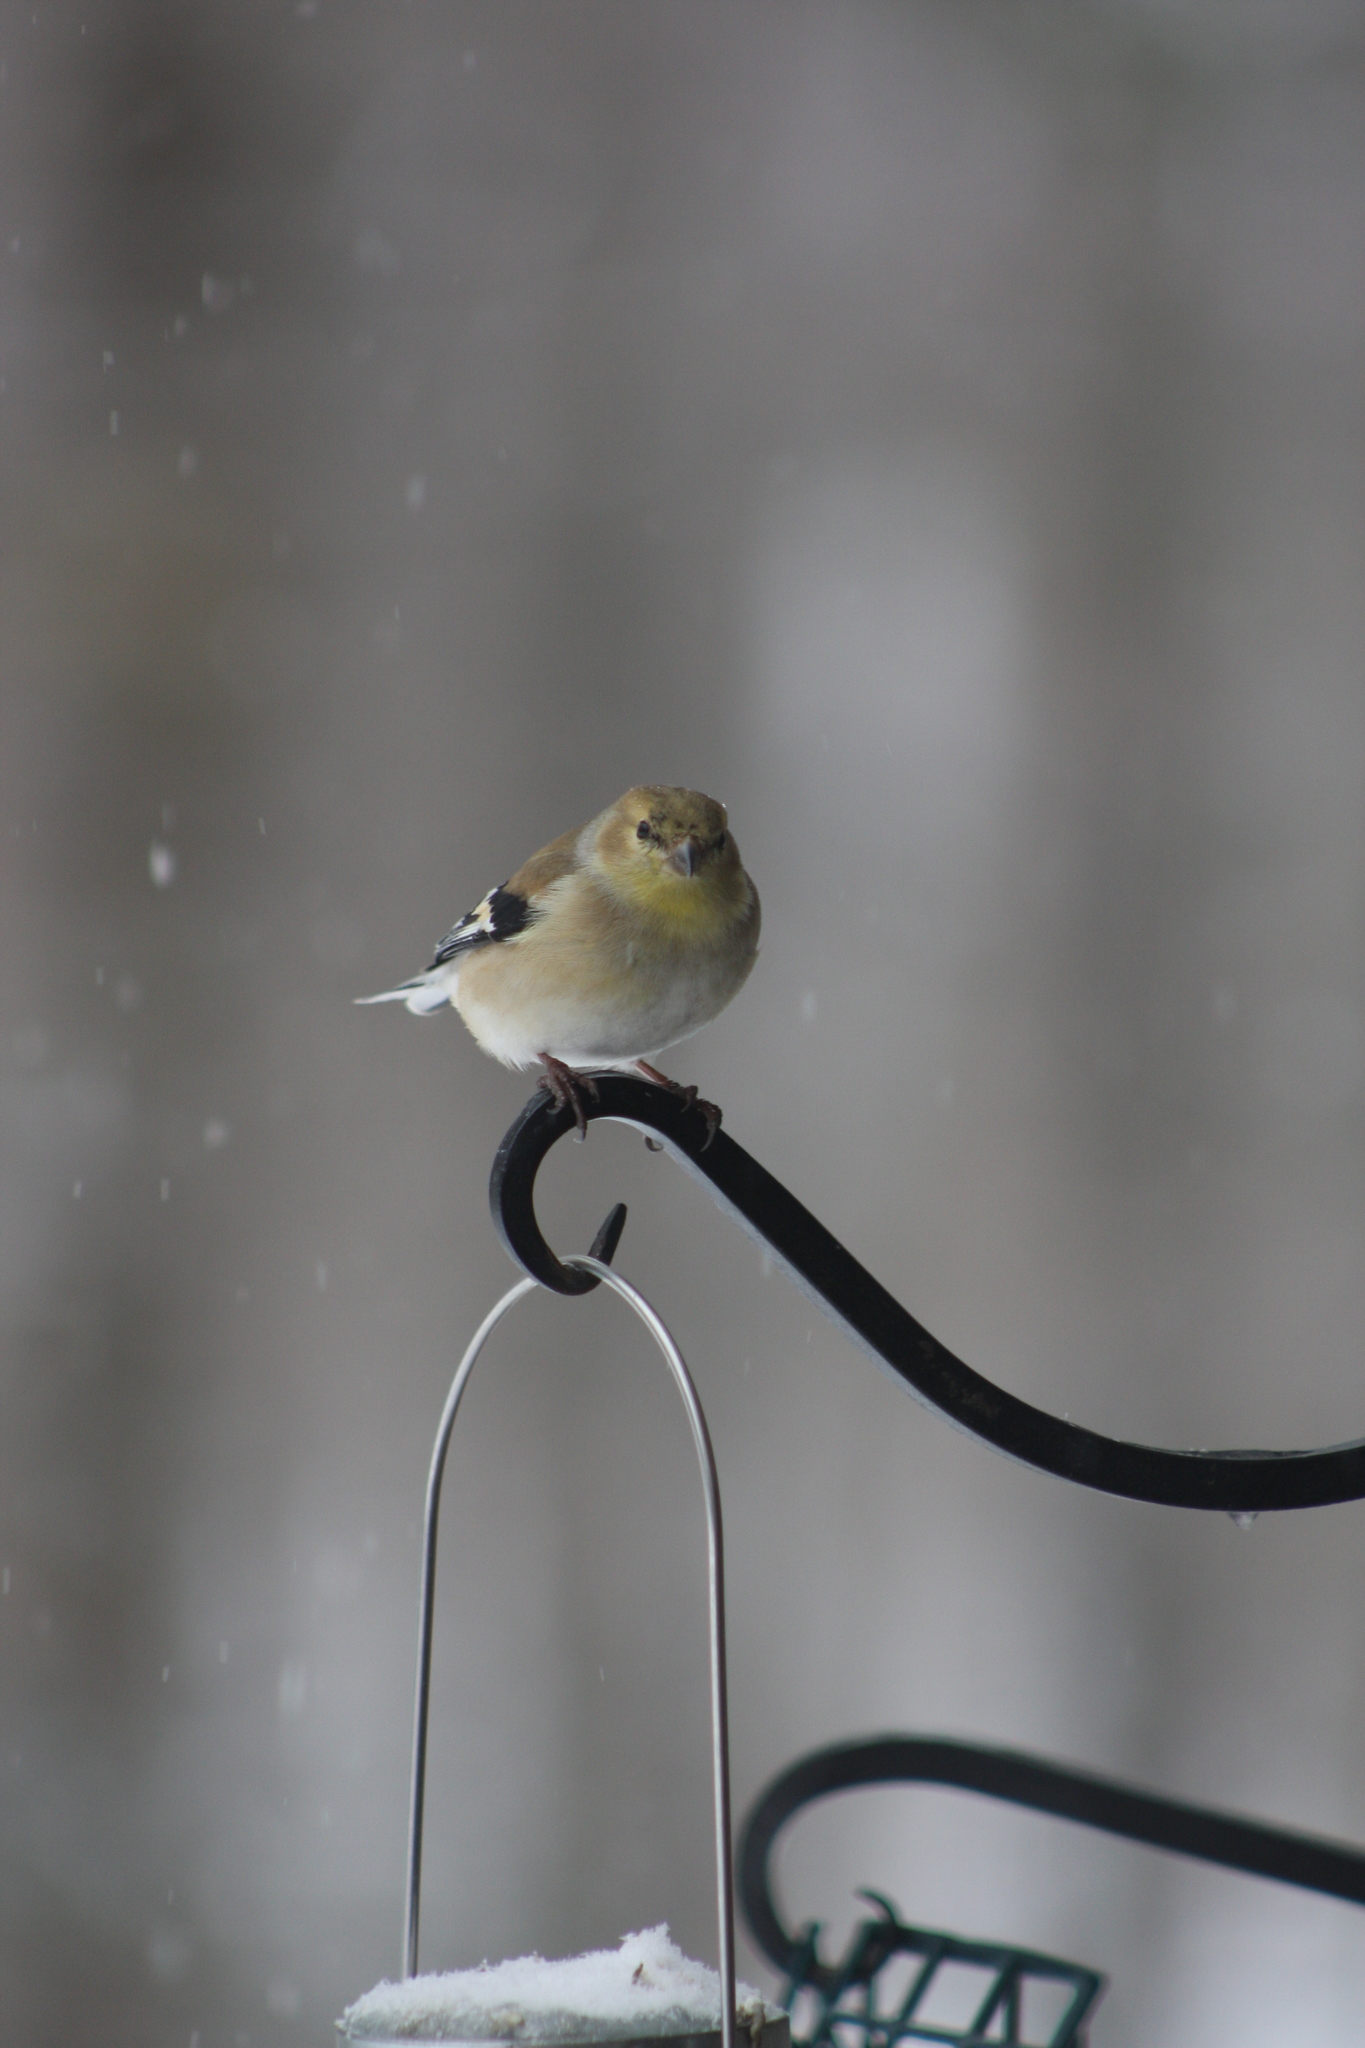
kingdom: Animalia
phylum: Chordata
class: Aves
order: Passeriformes
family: Fringillidae
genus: Spinus
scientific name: Spinus tristis
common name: American goldfinch
